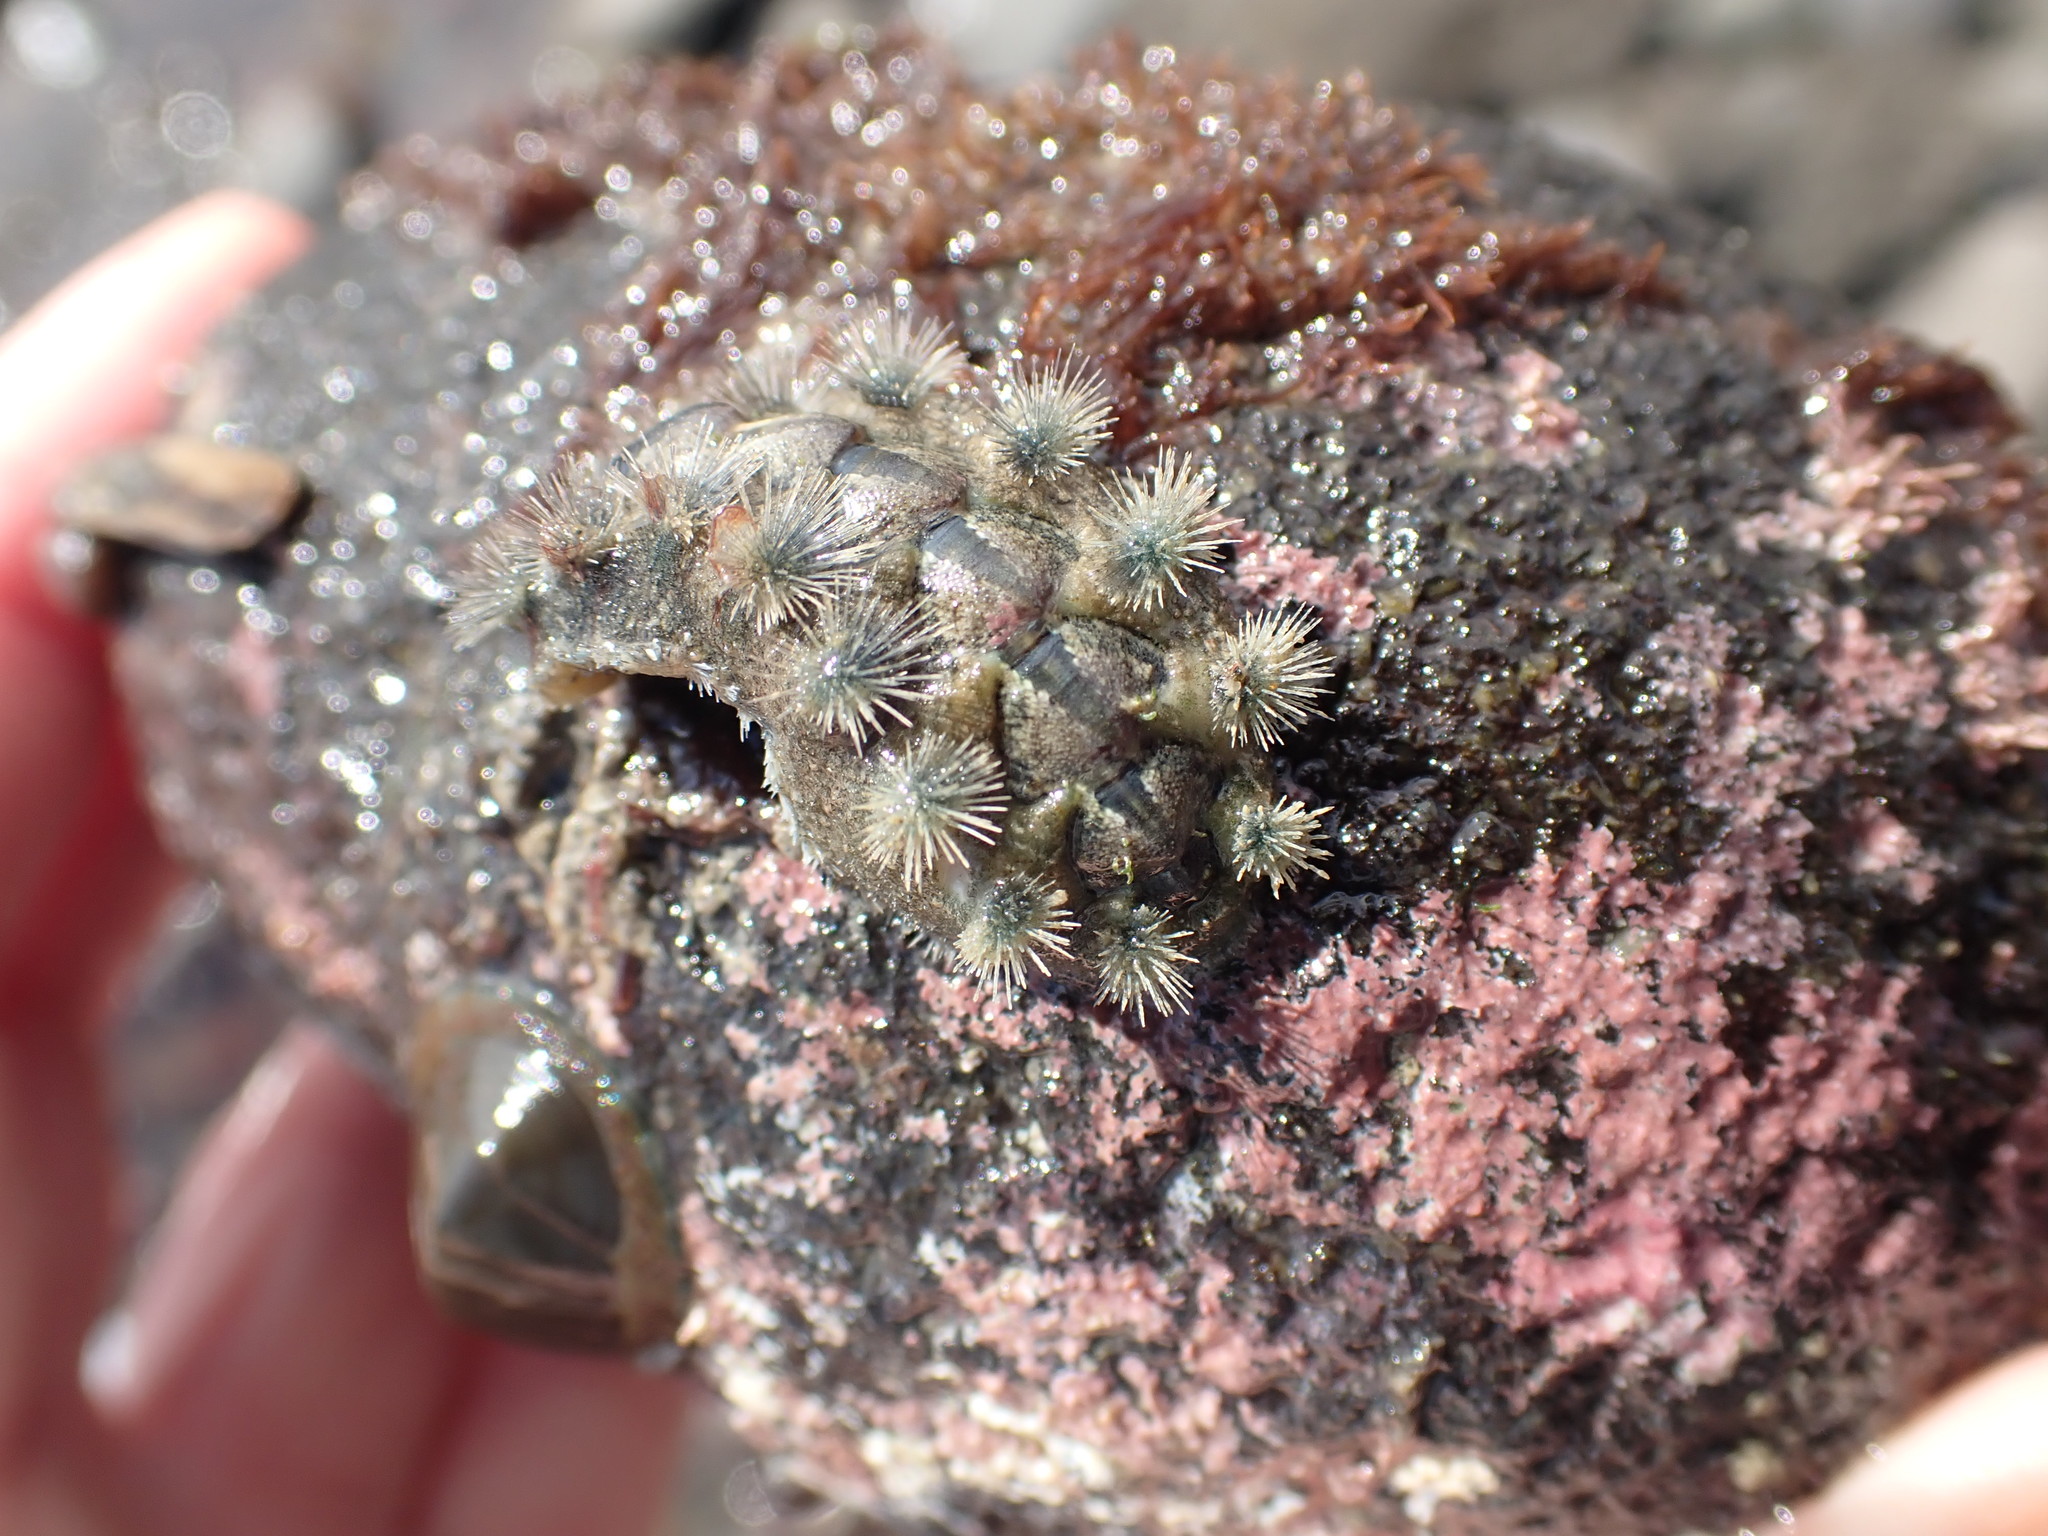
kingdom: Animalia
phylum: Mollusca
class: Polyplacophora
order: Chitonida
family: Acanthochitonidae
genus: Acanthochitona
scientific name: Acanthochitona zelandica
